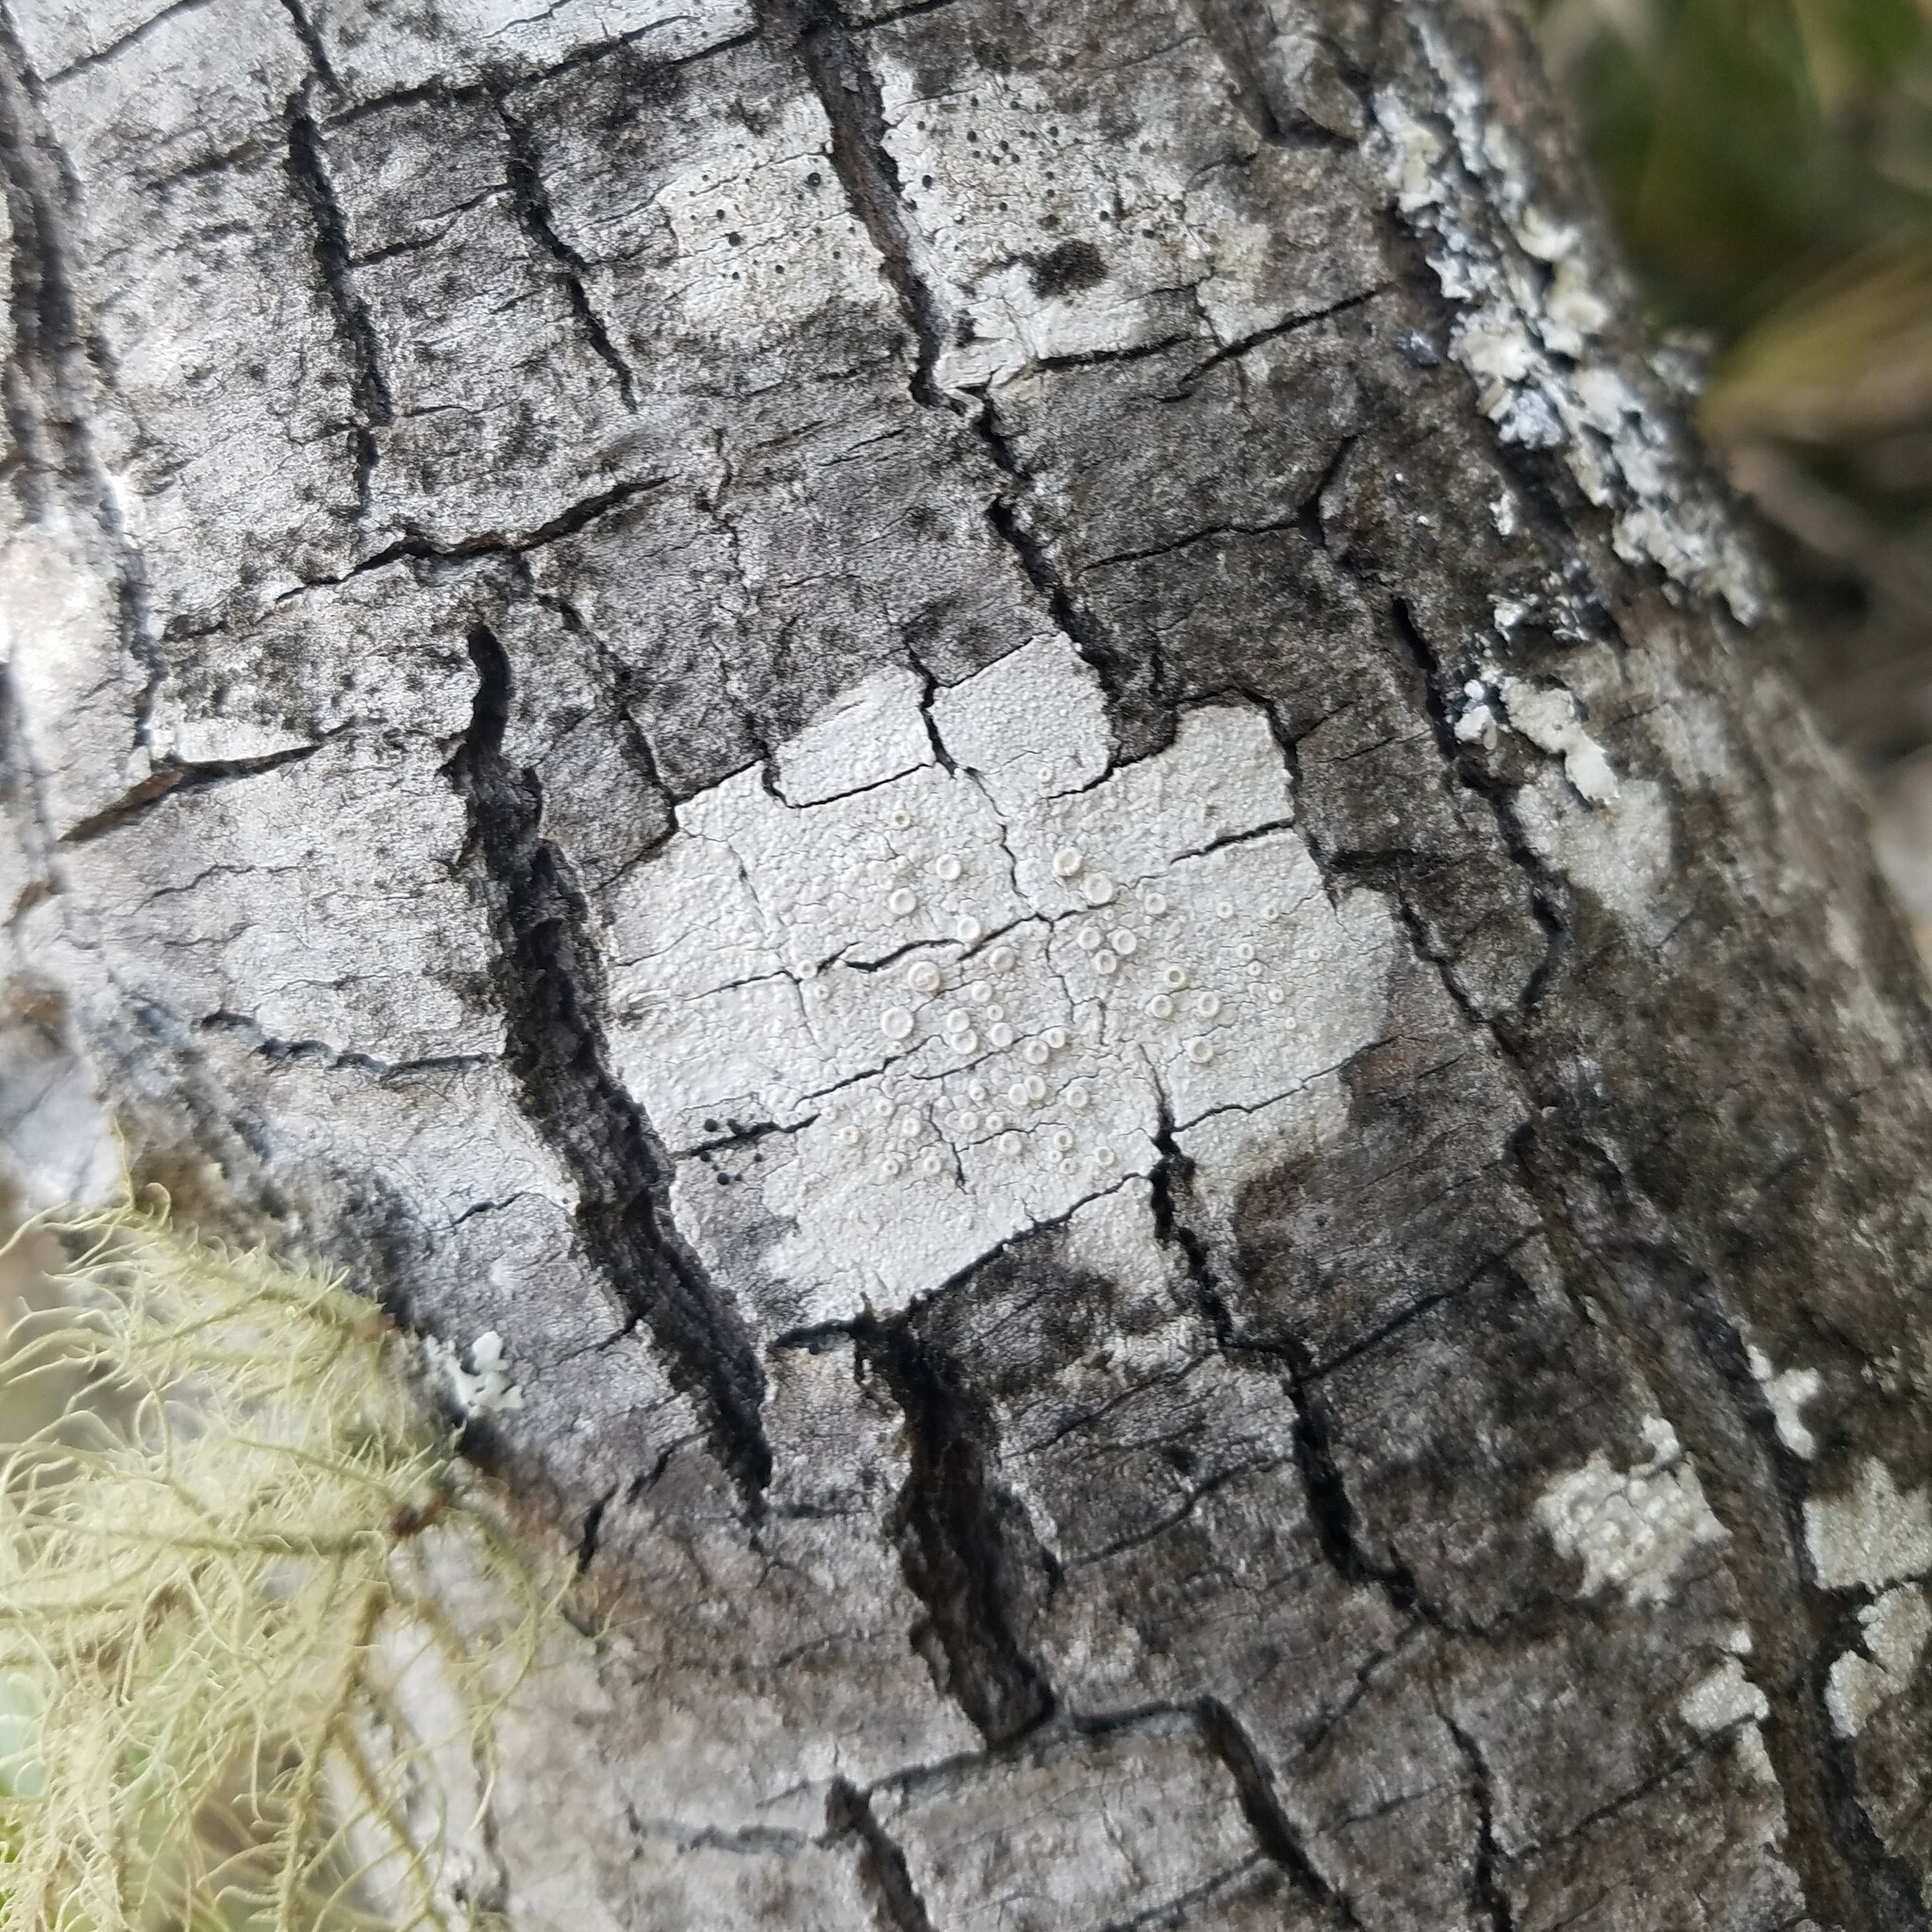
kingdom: Fungi
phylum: Ascomycota
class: Lecanoromycetes
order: Pertusariales
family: Ochrolechiaceae
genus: Ochrolechia
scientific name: Ochrolechia africana
